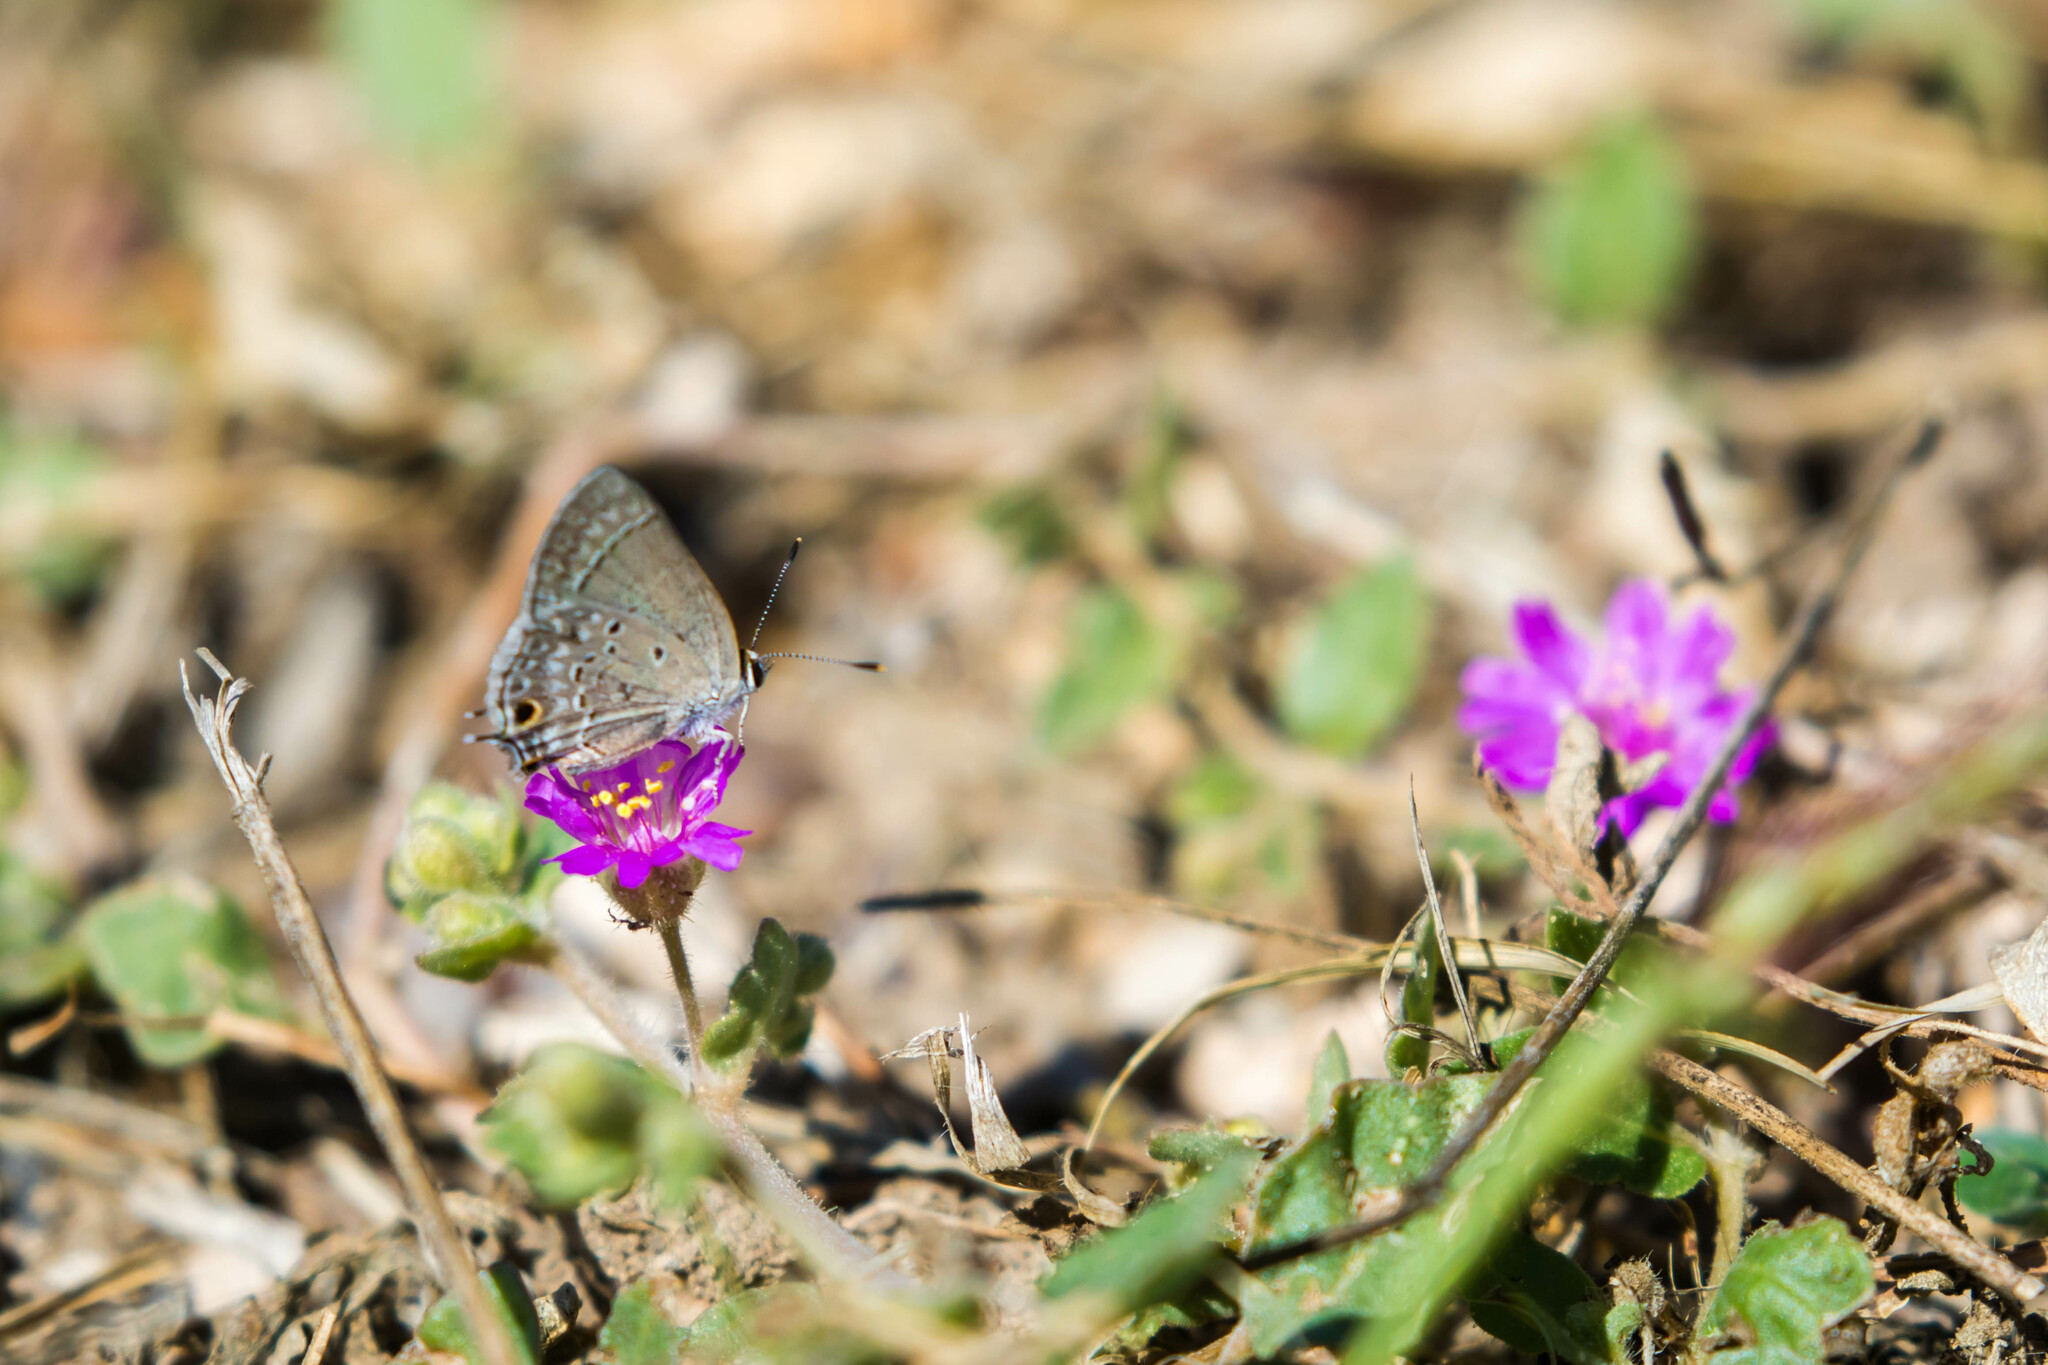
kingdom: Animalia
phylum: Arthropoda
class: Insecta
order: Lepidoptera
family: Lycaenidae
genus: Callicista
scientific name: Callicista columella
